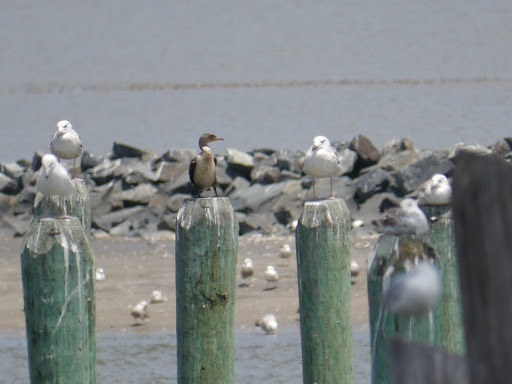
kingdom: Animalia
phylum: Chordata
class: Aves
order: Suliformes
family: Phalacrocoracidae
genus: Phalacrocorax
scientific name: Phalacrocorax auritus
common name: Double-crested cormorant
